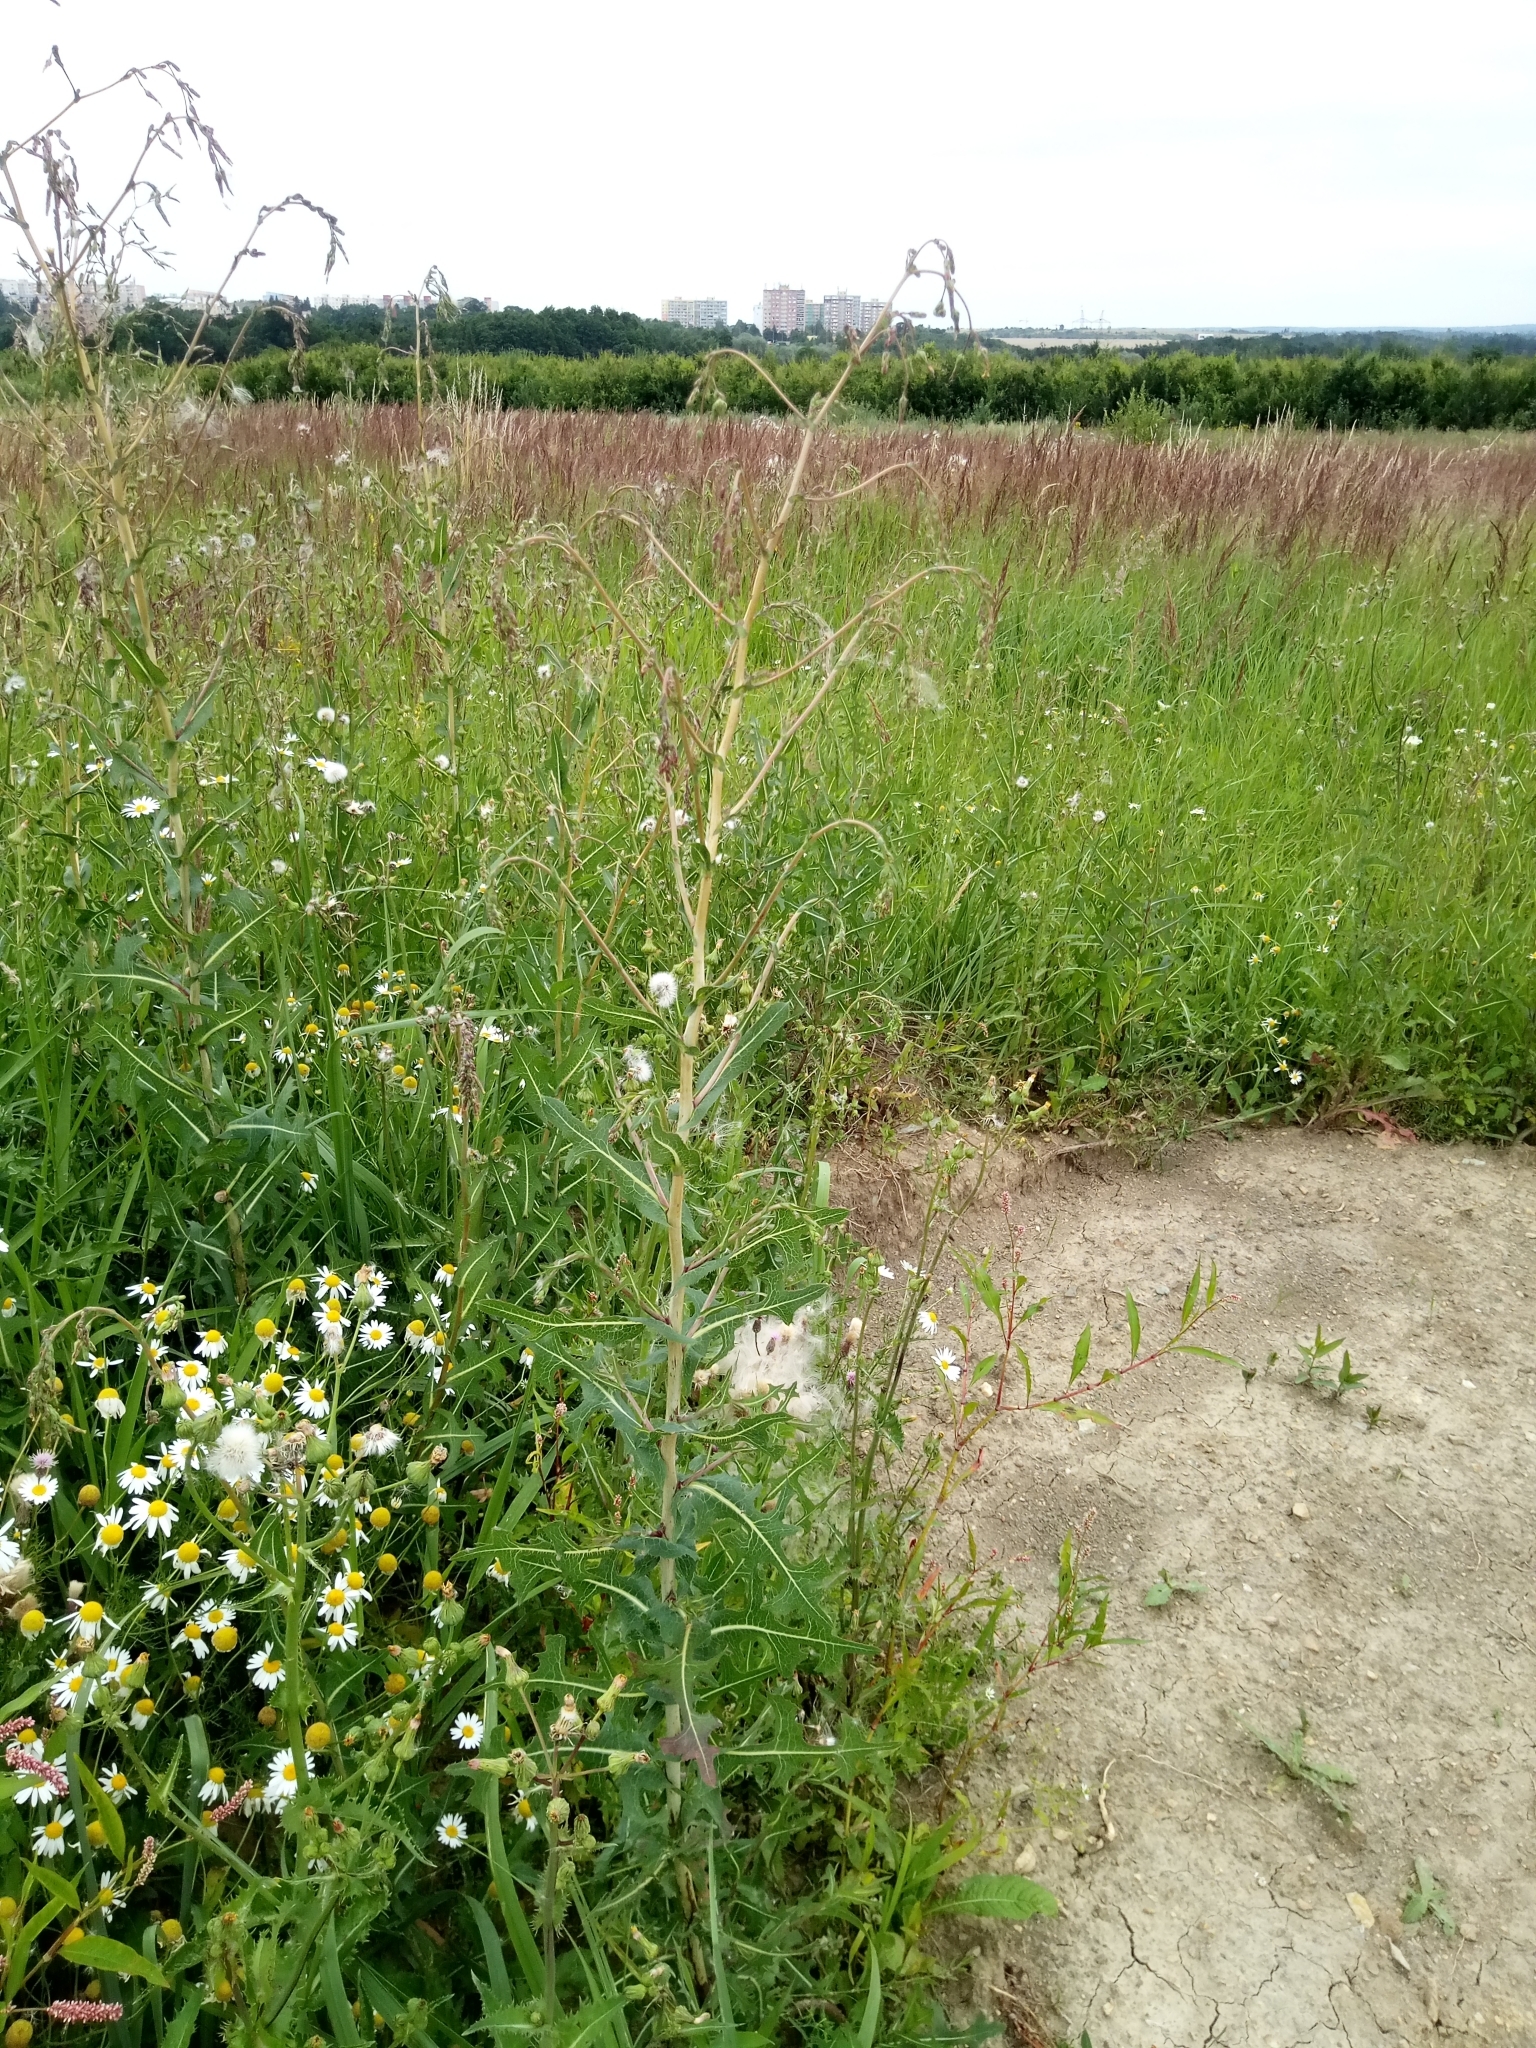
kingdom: Plantae
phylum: Tracheophyta
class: Magnoliopsida
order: Asterales
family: Asteraceae
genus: Lactuca
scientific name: Lactuca serriola
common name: Prickly lettuce
